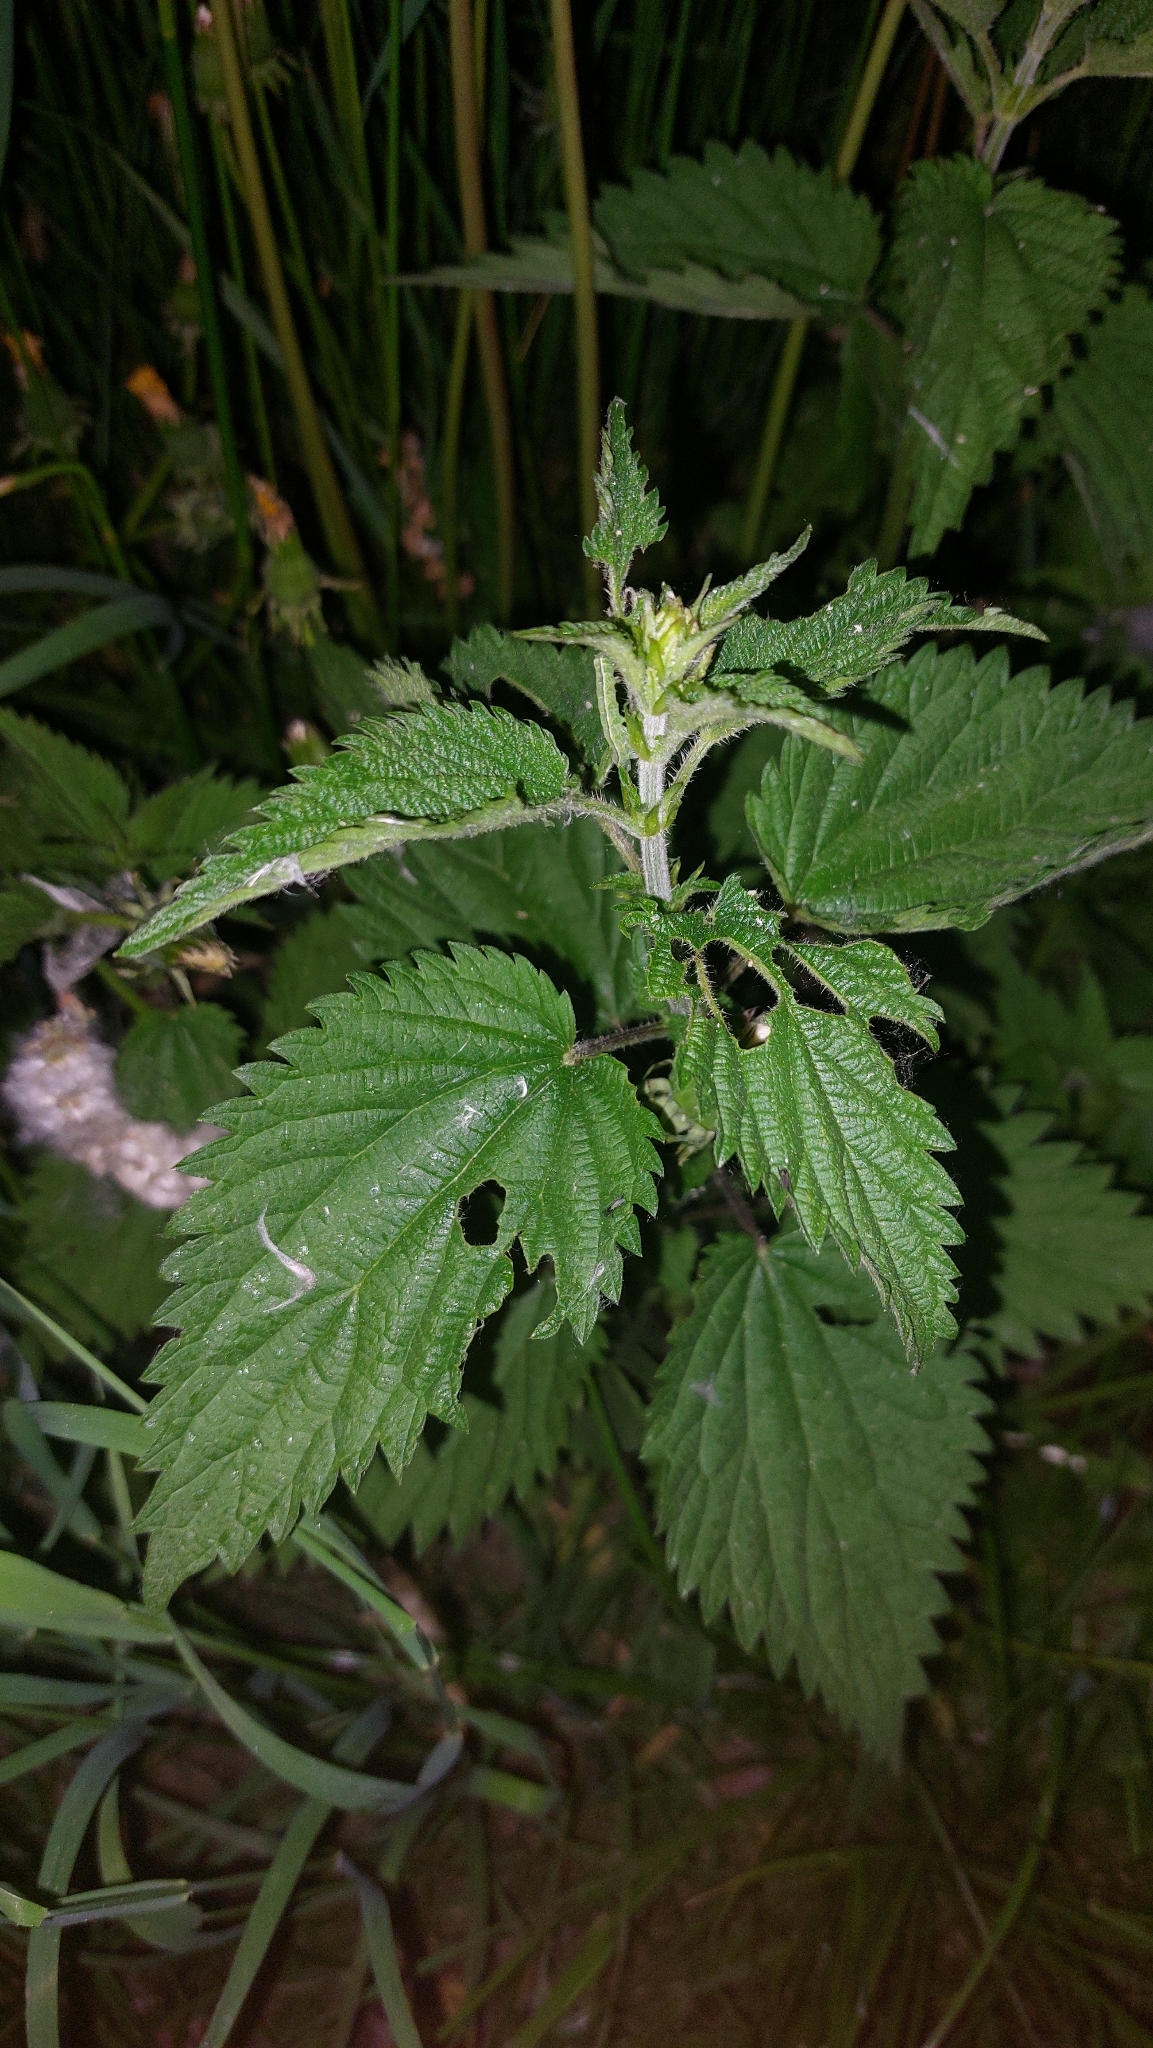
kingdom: Plantae
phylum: Tracheophyta
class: Magnoliopsida
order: Rosales
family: Urticaceae
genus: Urtica
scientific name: Urtica dioica
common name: Common nettle
